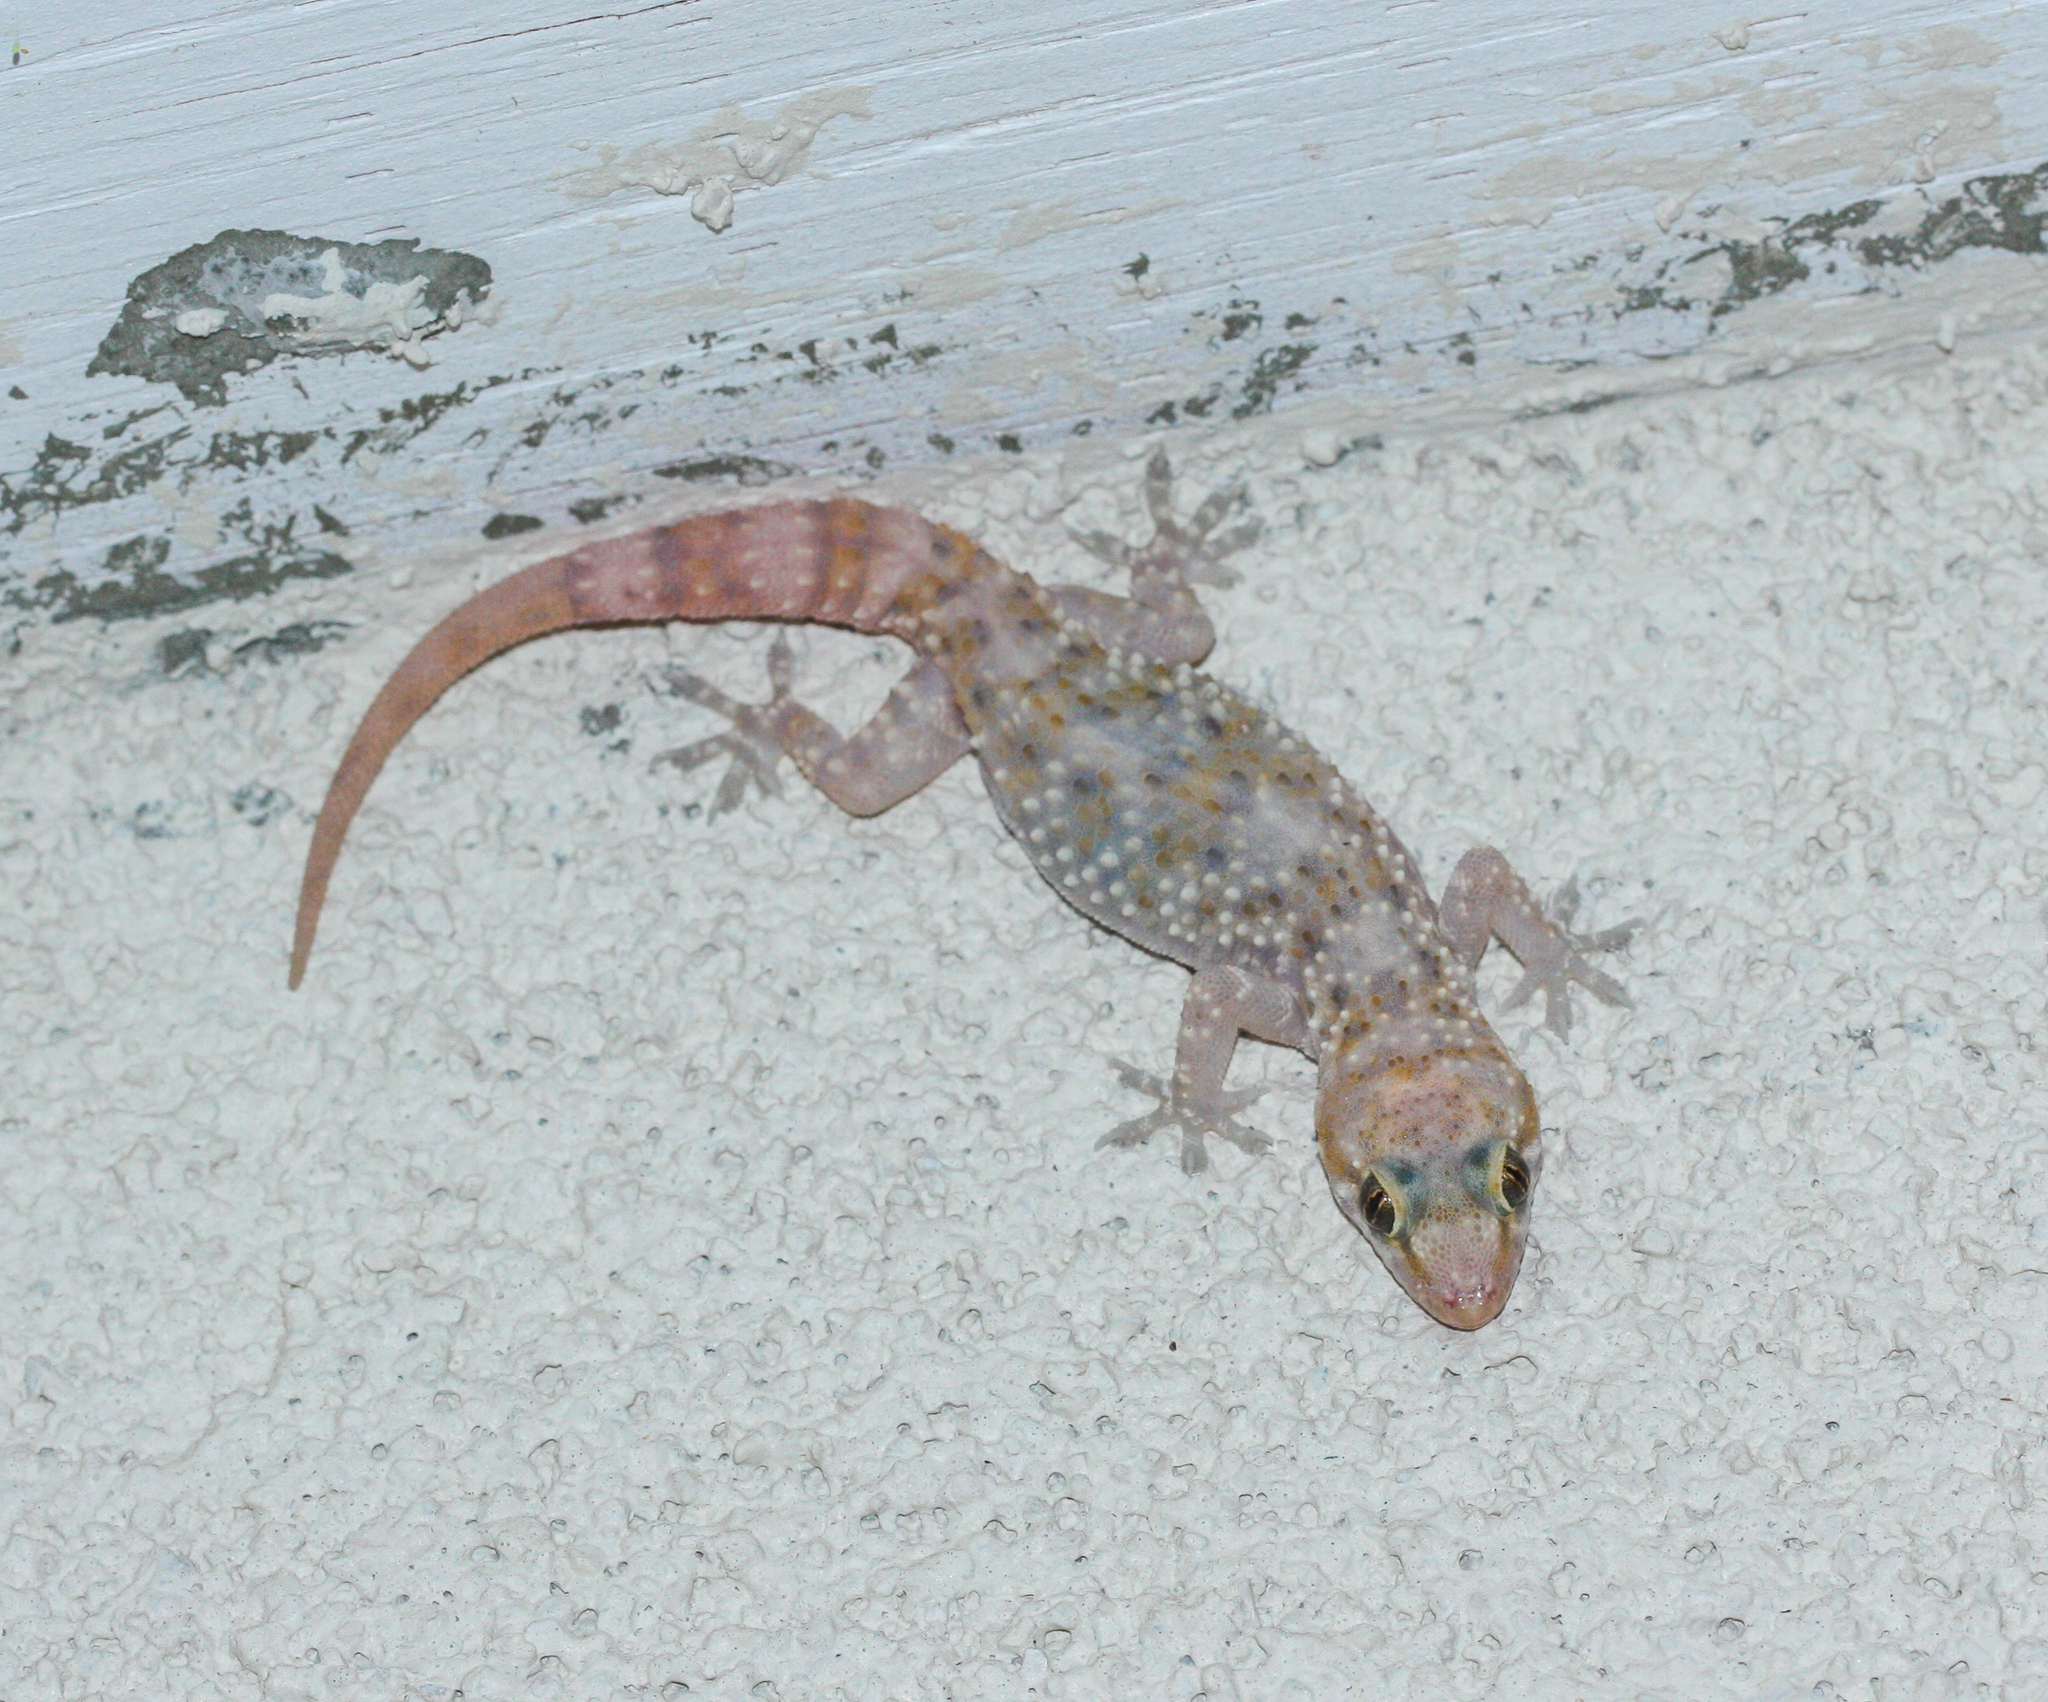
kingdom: Animalia
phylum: Chordata
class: Squamata
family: Gekkonidae
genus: Hemidactylus
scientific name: Hemidactylus turcicus
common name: Turkish gecko
